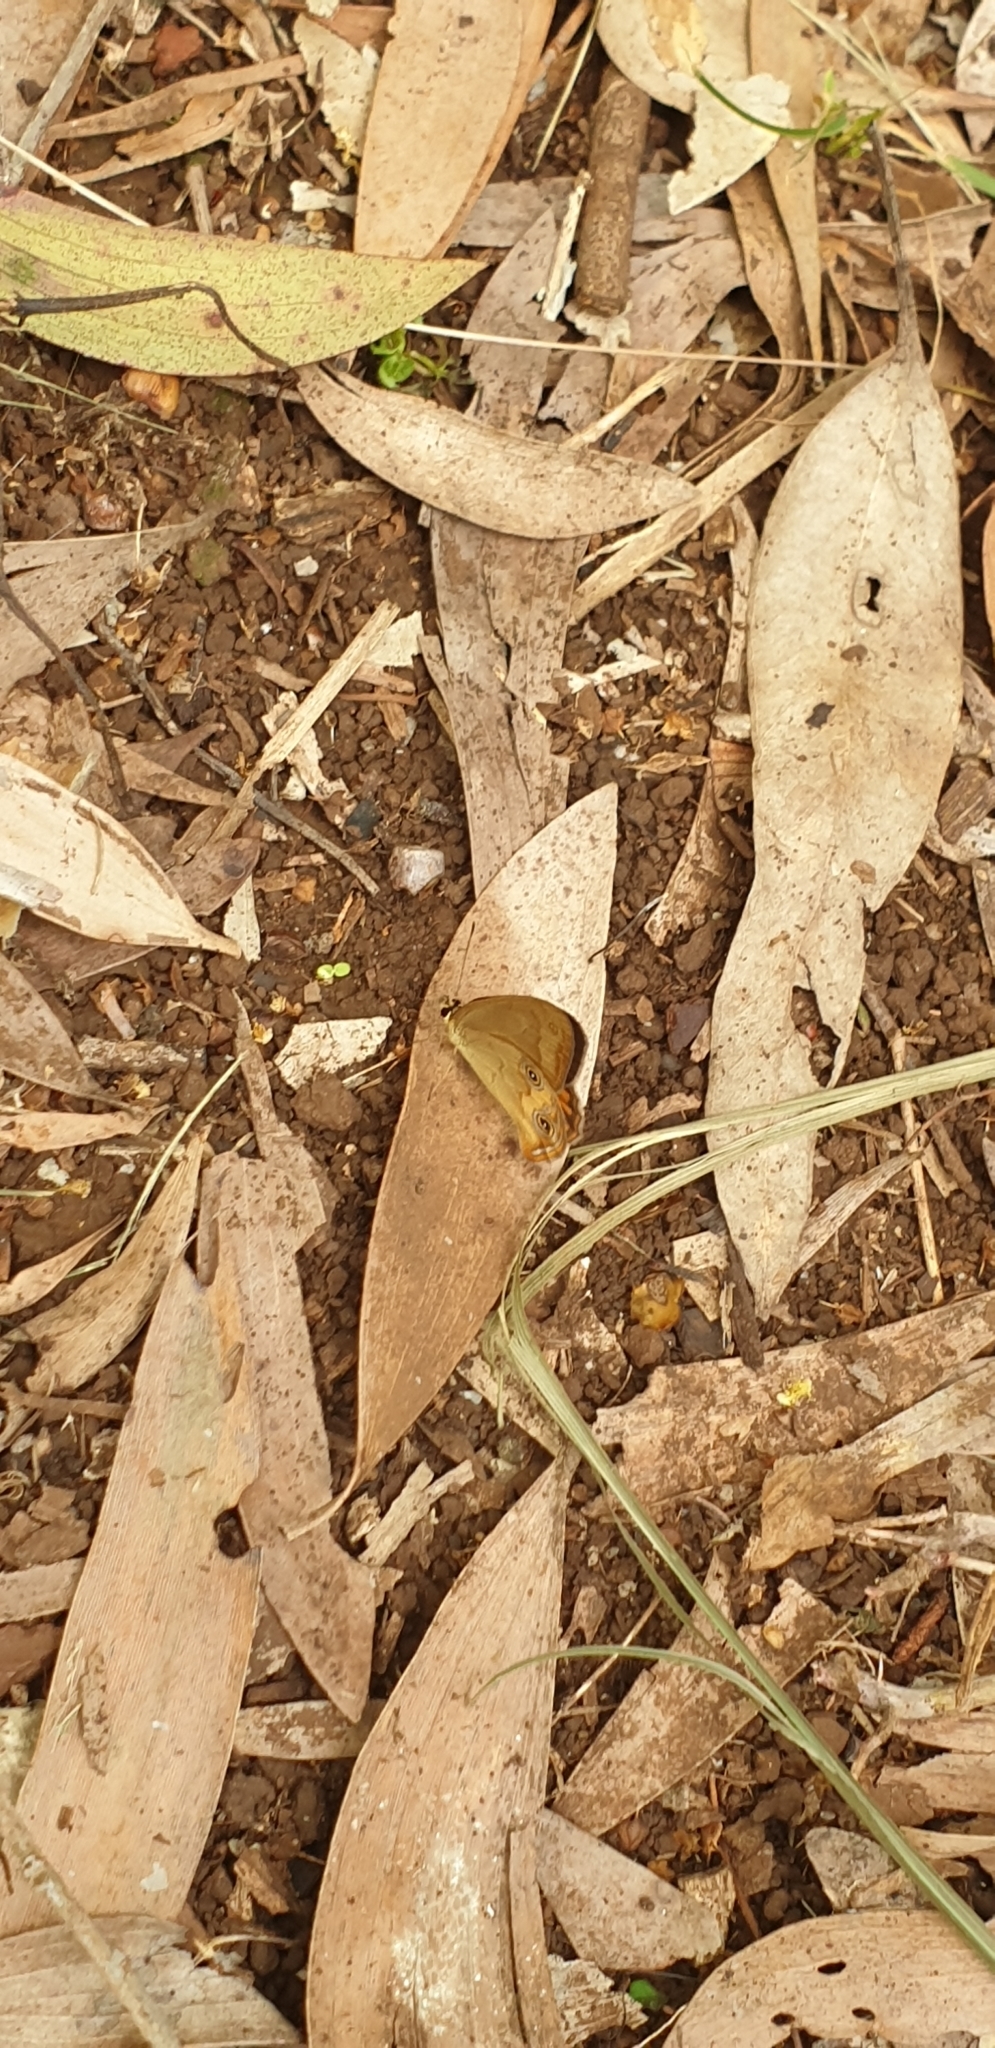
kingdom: Animalia
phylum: Arthropoda
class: Insecta
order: Lepidoptera
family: Nymphalidae
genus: Hypocysta
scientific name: Hypocysta metirius
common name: Brown ringlet
